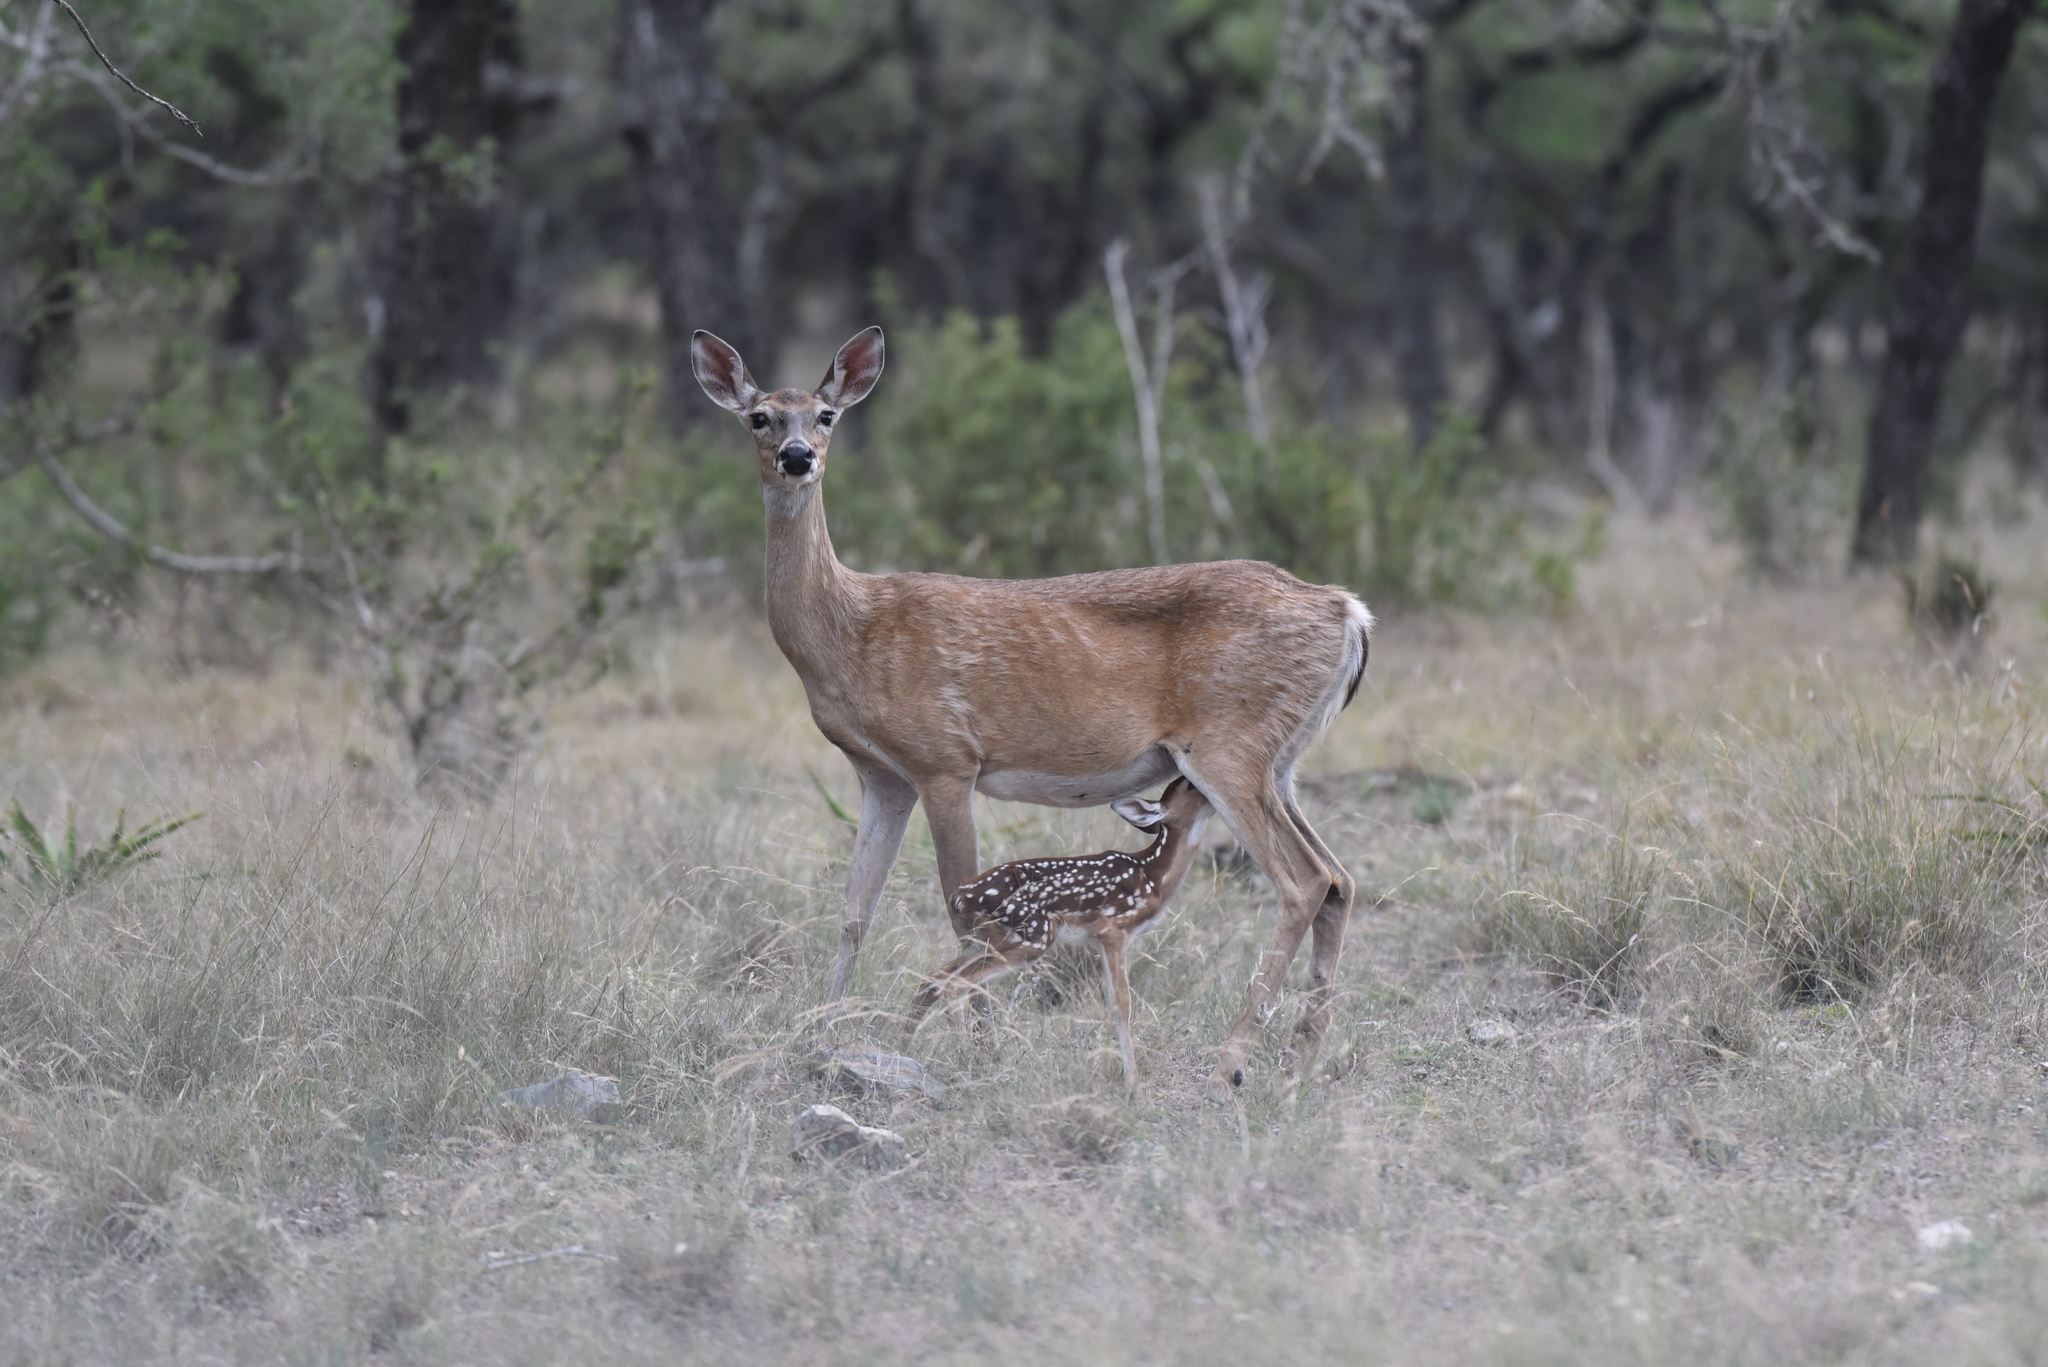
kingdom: Animalia
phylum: Chordata
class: Mammalia
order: Artiodactyla
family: Cervidae
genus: Odocoileus
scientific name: Odocoileus virginianus
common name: White-tailed deer
